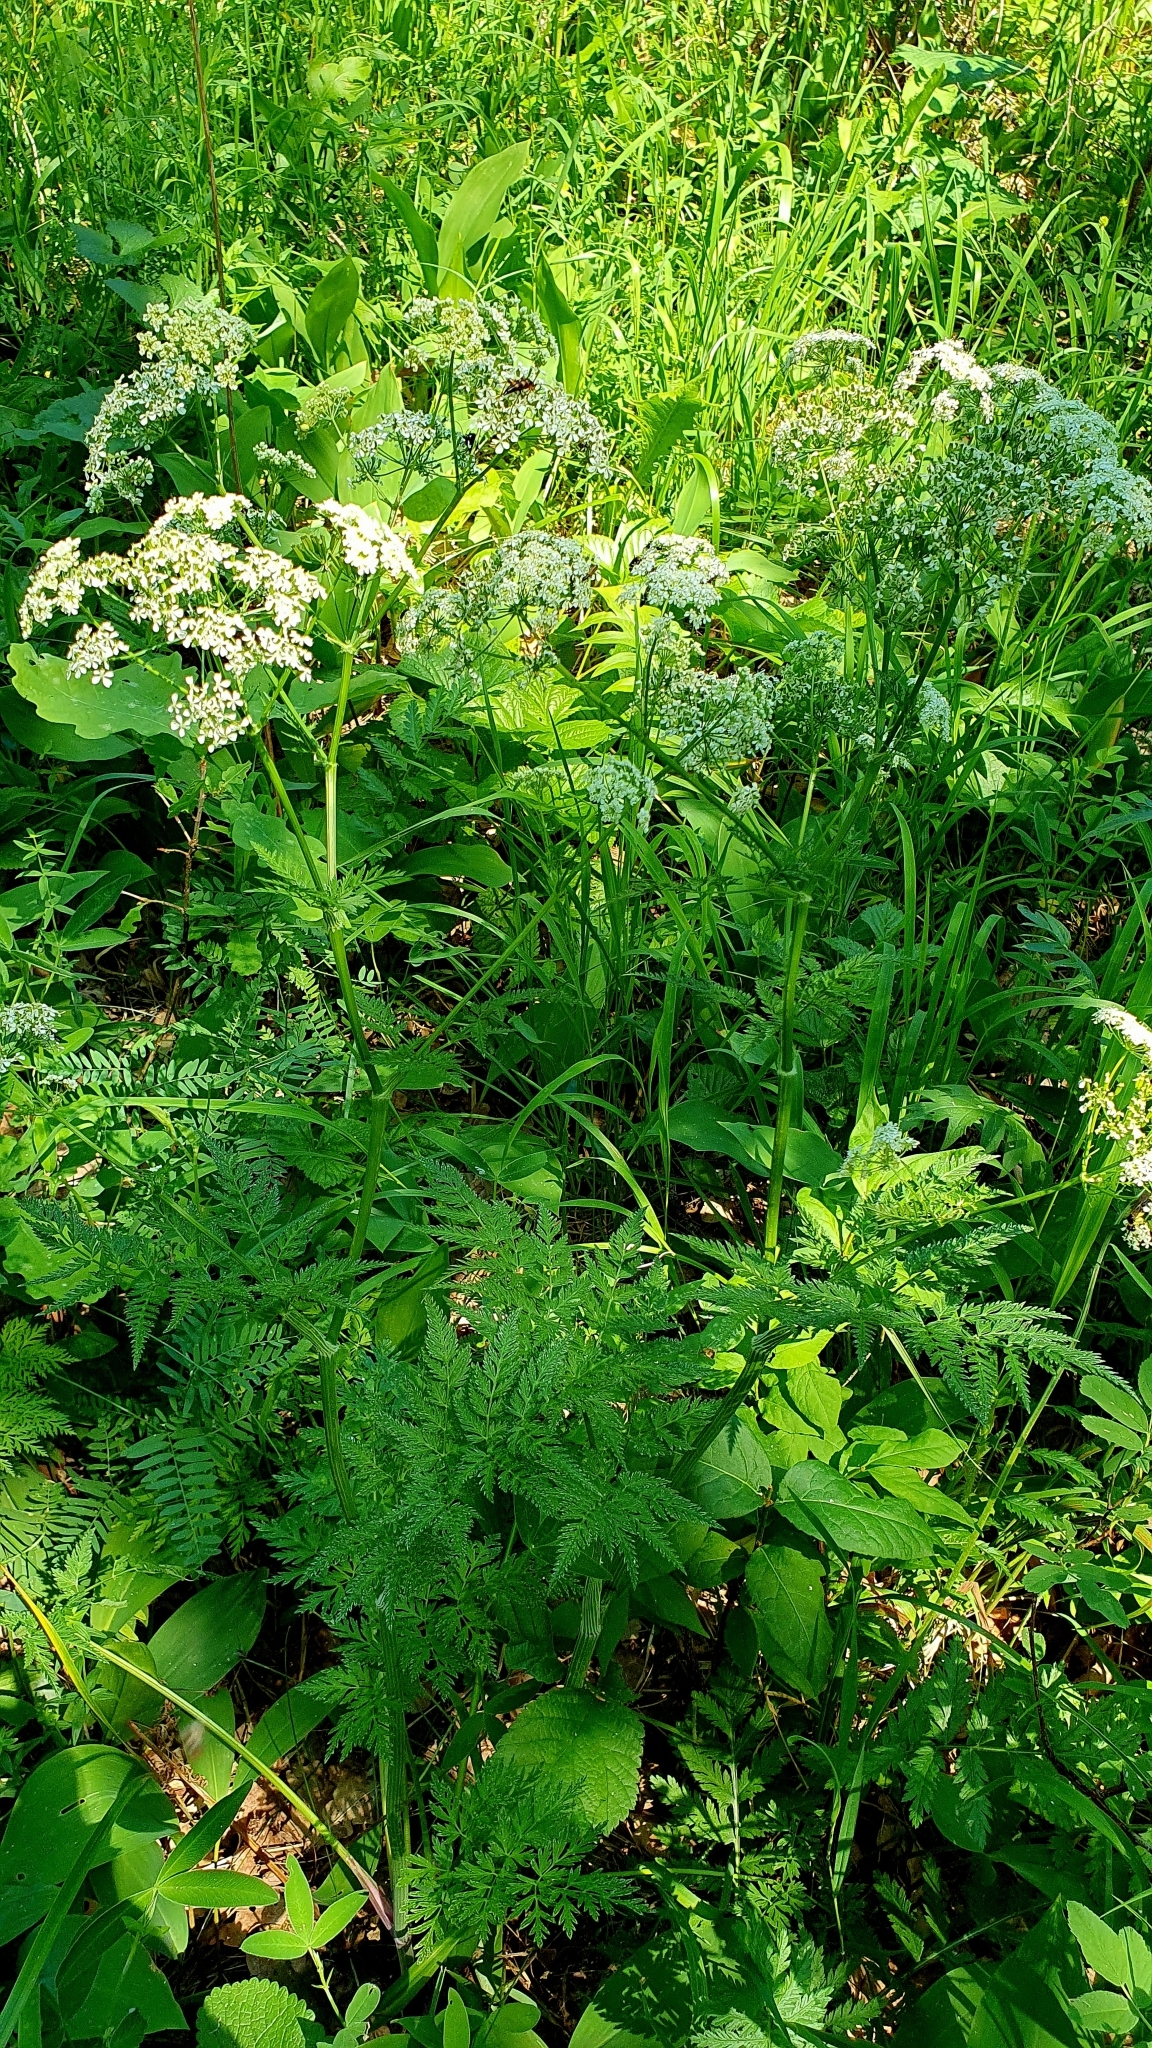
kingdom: Plantae
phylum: Tracheophyta
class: Magnoliopsida
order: Apiales
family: Apiaceae
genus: Anthriscus
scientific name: Anthriscus sylvestris
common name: Cow parsley
